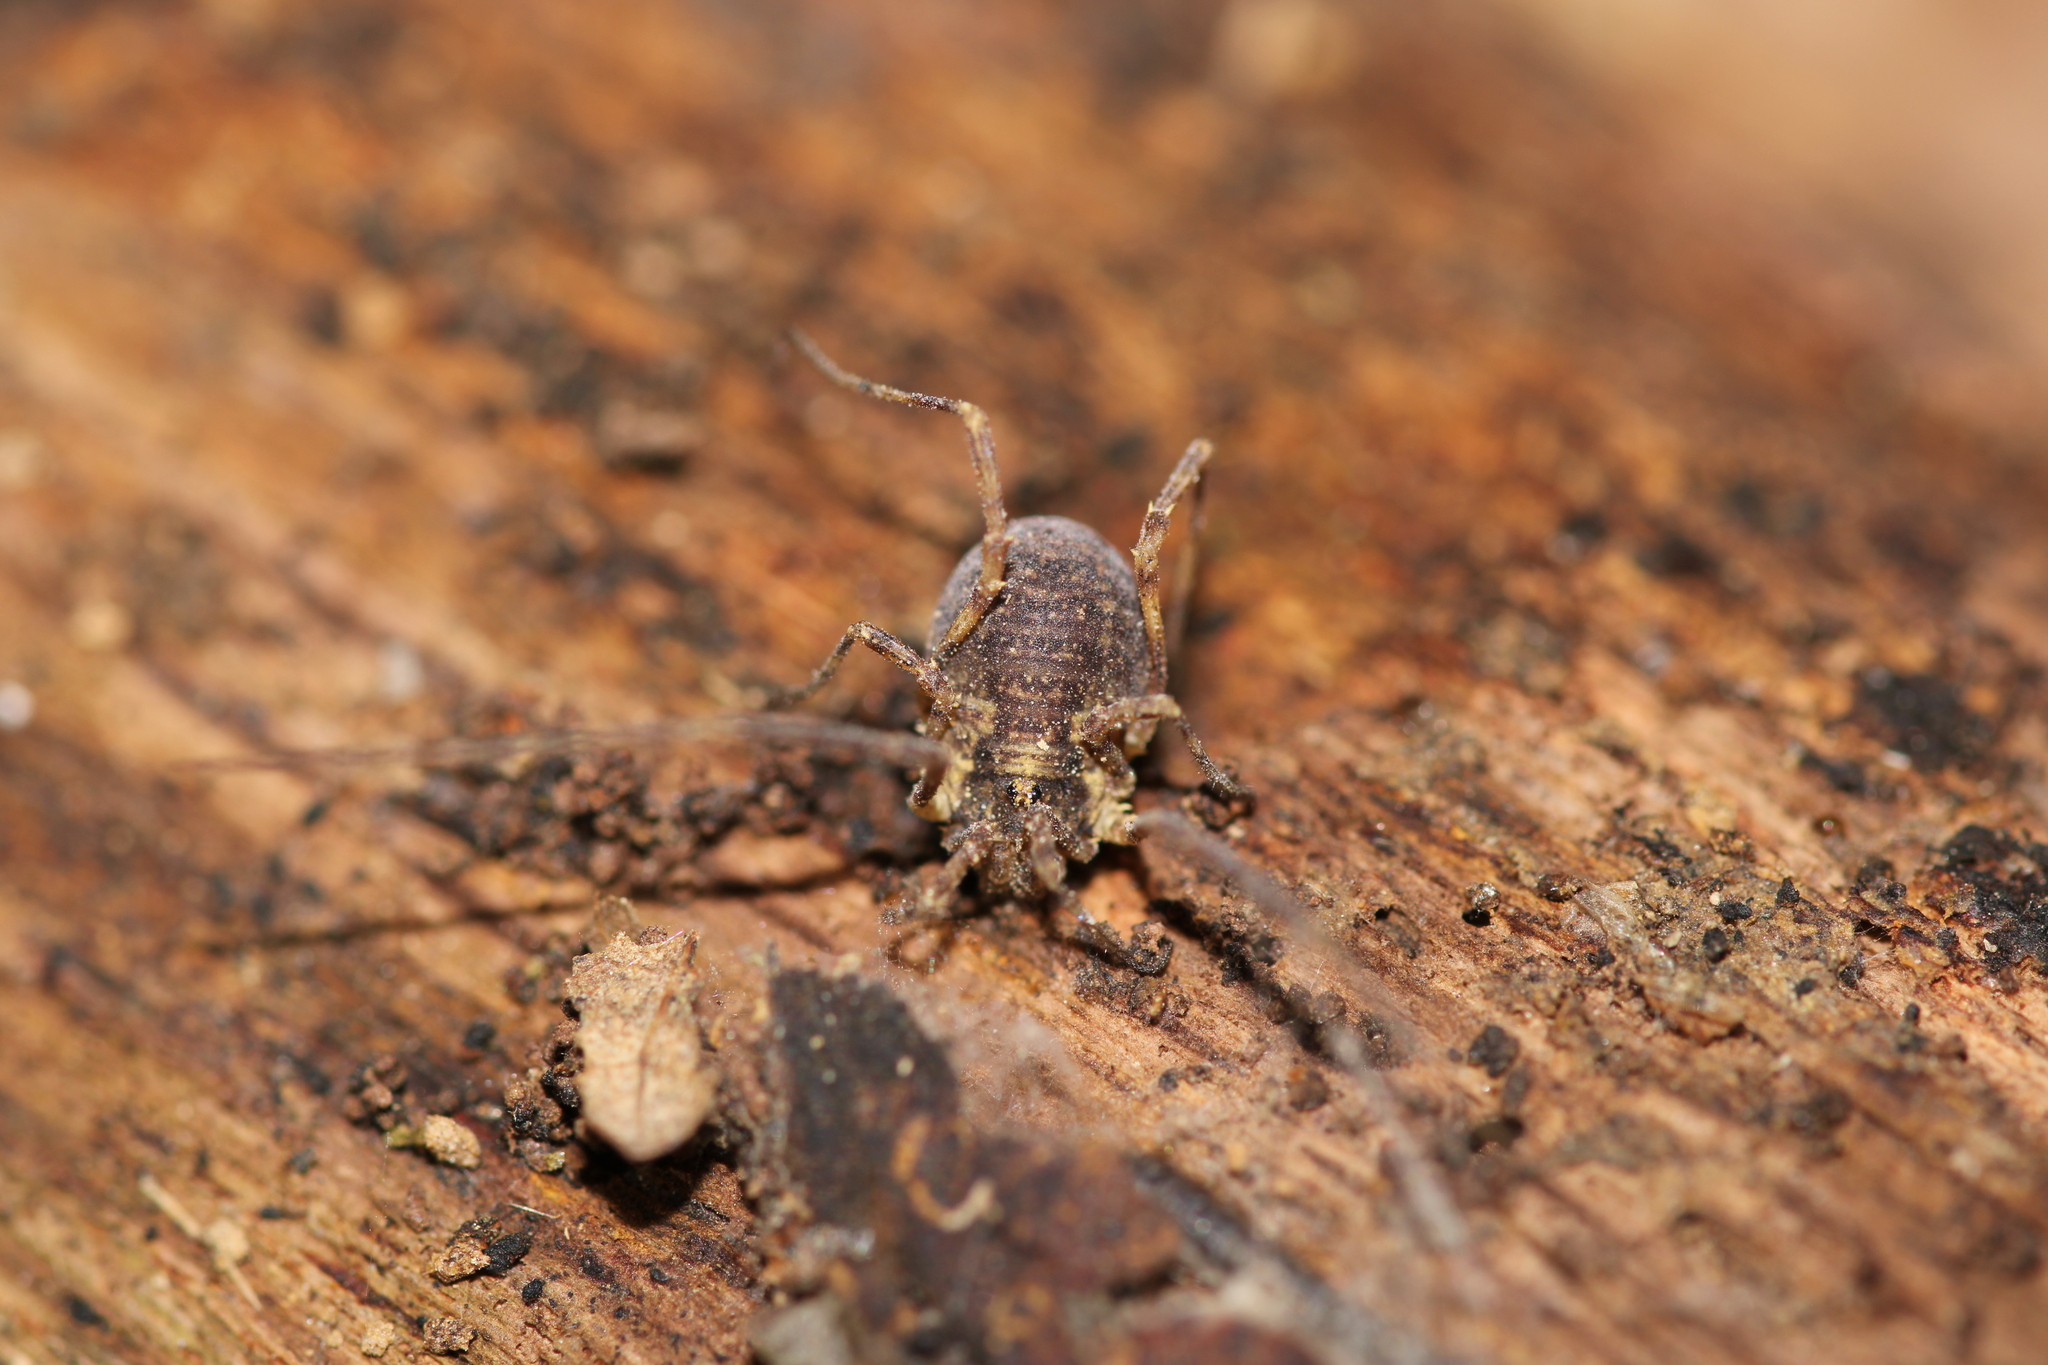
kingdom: Animalia
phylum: Arthropoda
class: Arachnida
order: Opiliones
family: Phalangiidae
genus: Lophopilio
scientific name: Lophopilio palpinalis
